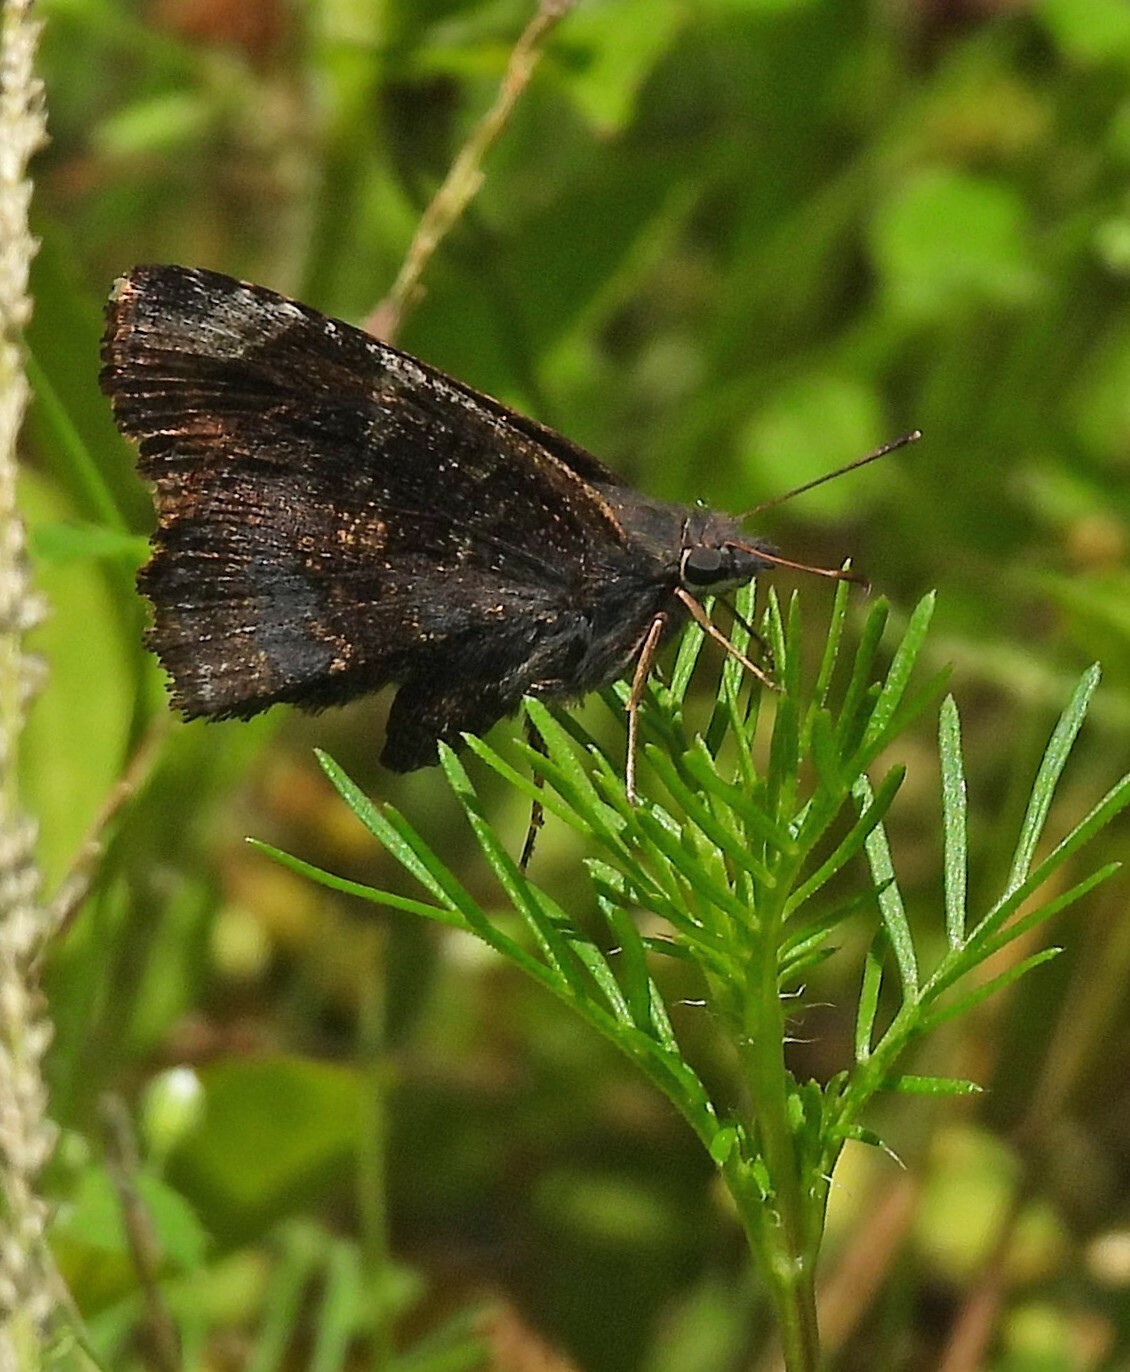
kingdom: Animalia
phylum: Arthropoda
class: Insecta
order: Lepidoptera
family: Hesperiidae
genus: Caicella
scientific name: Caicella calchas
